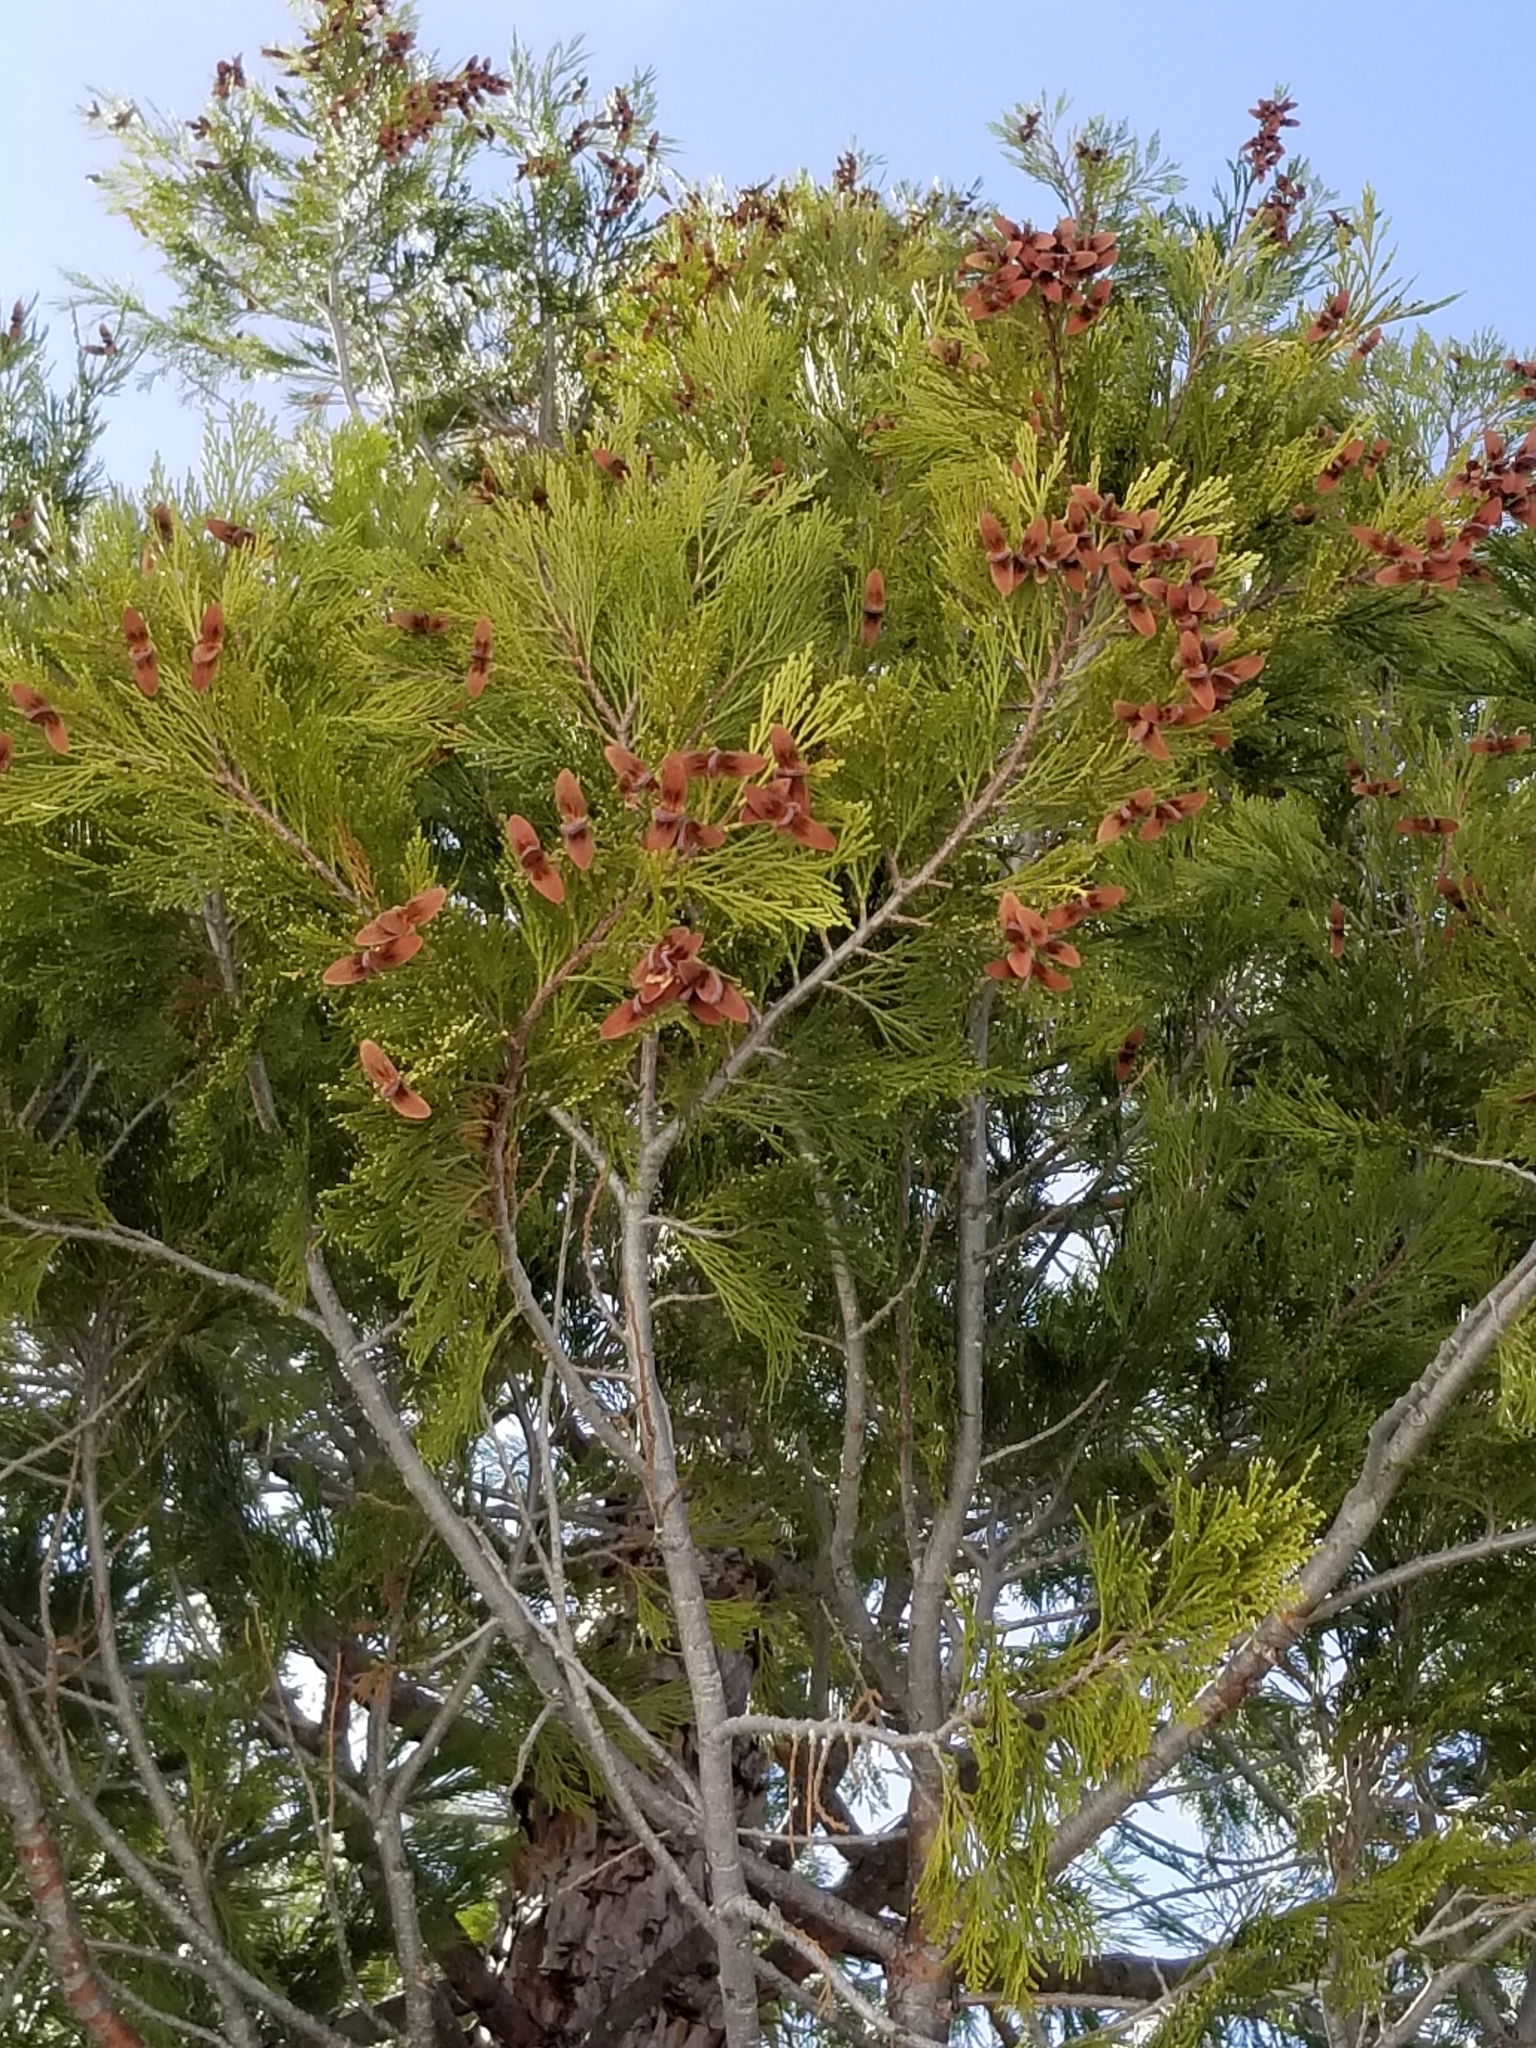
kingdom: Plantae
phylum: Tracheophyta
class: Pinopsida
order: Pinales
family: Cupressaceae
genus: Calocedrus
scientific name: Calocedrus decurrens
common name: Californian incense-cedar
